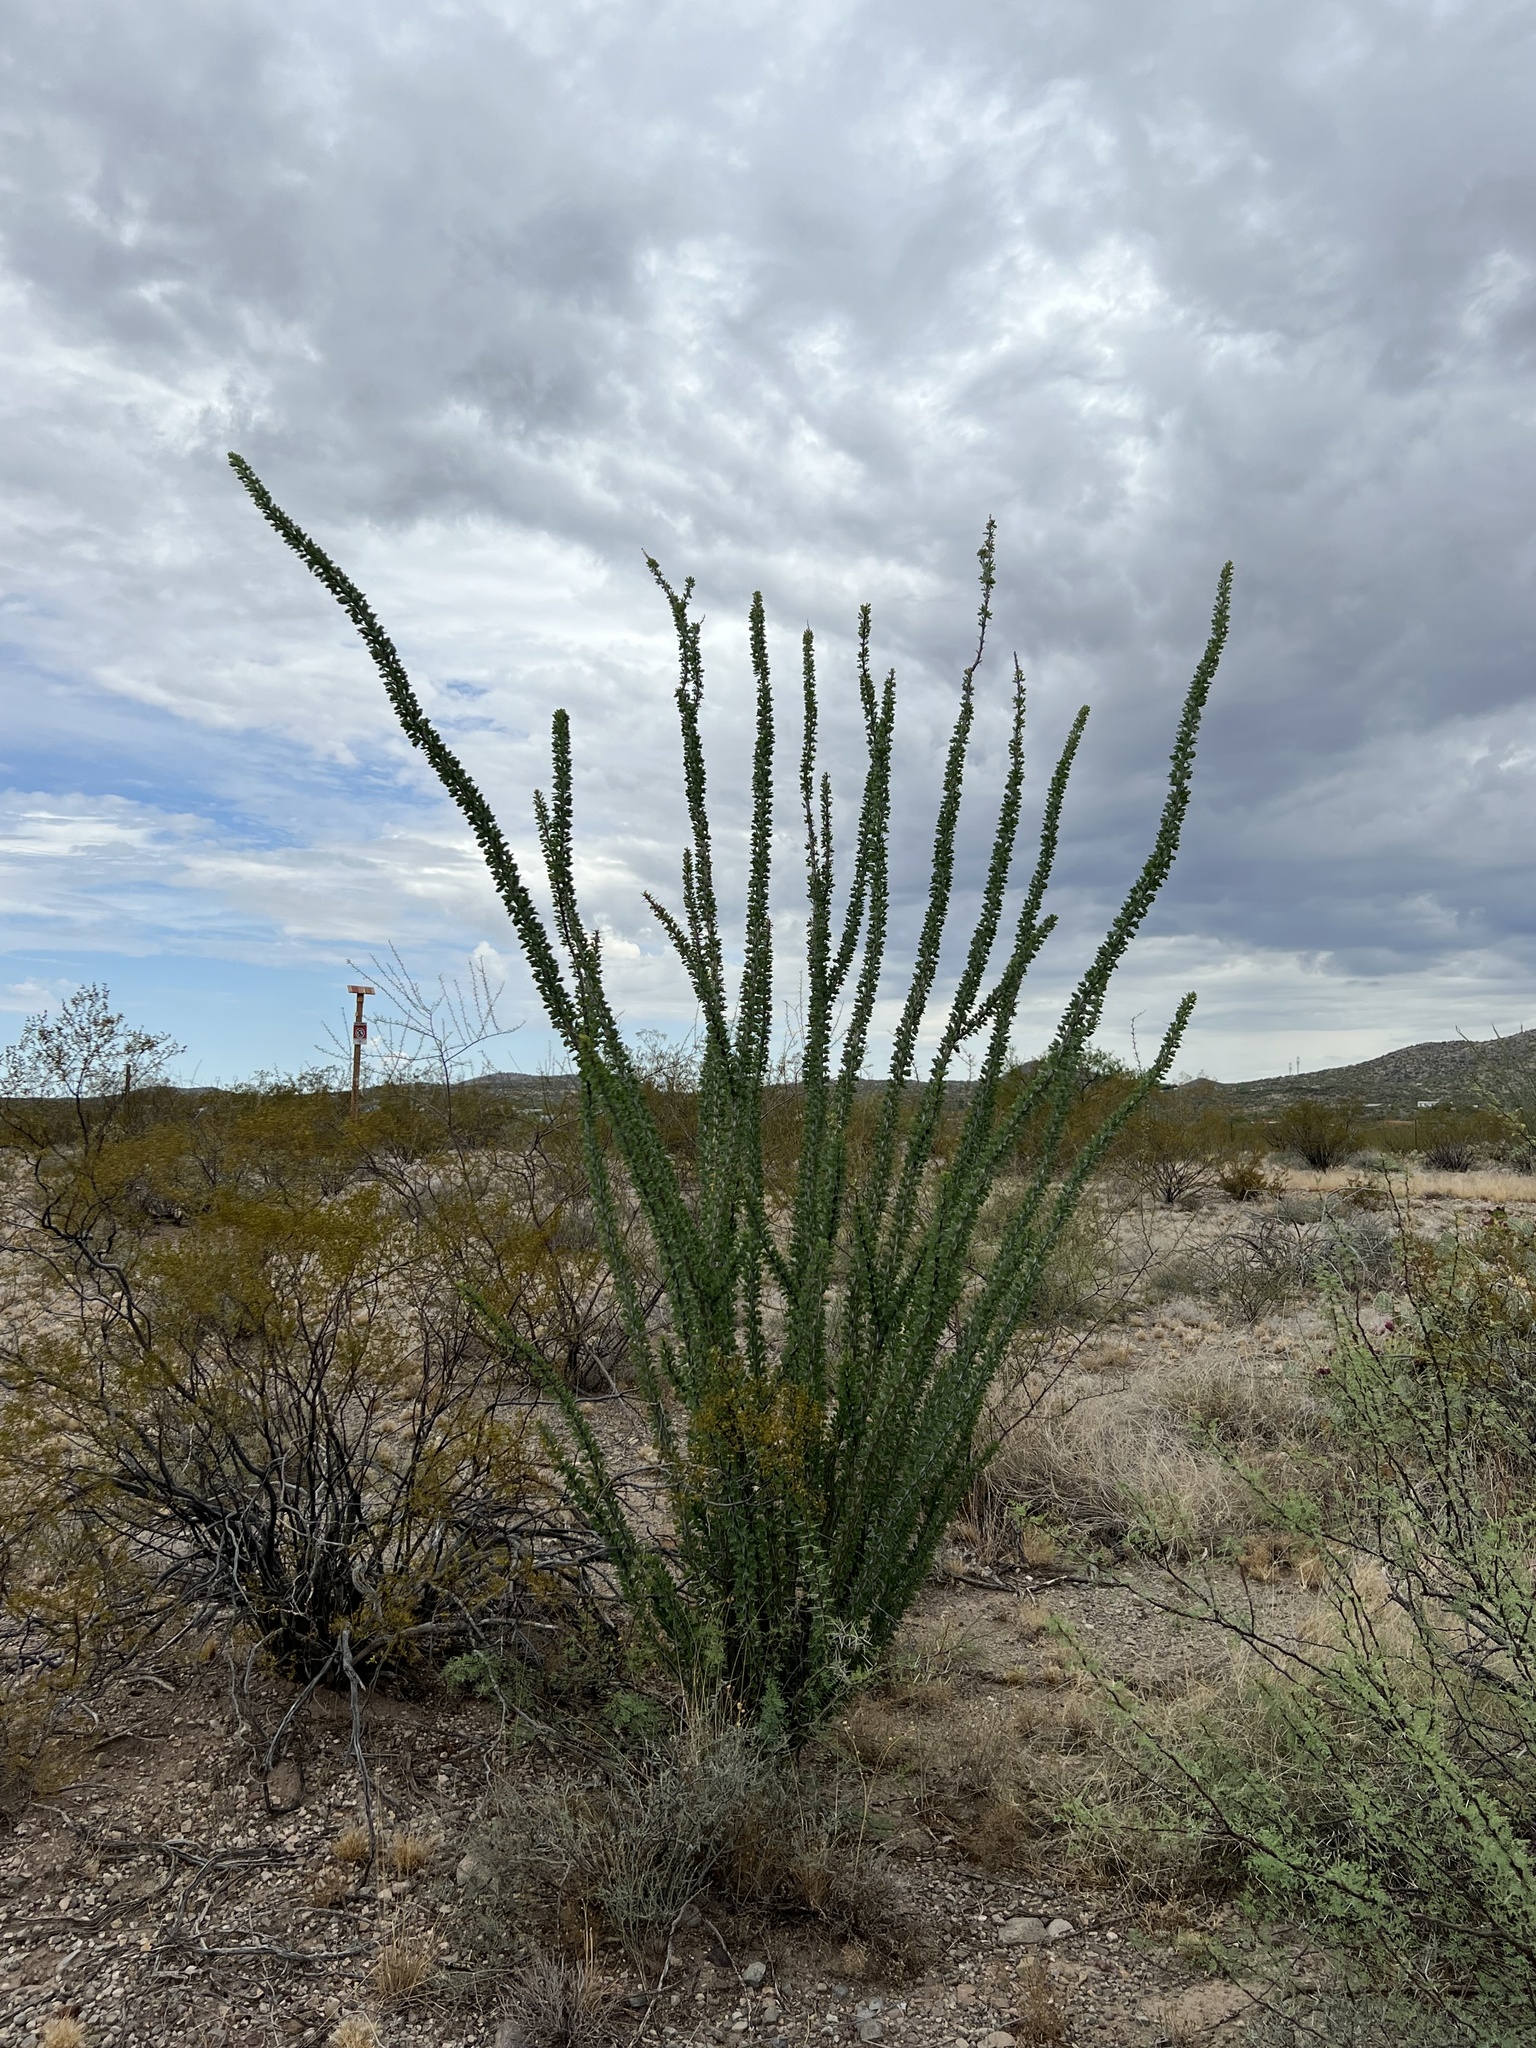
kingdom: Plantae
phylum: Tracheophyta
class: Magnoliopsida
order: Ericales
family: Fouquieriaceae
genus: Fouquieria
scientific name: Fouquieria splendens
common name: Vine-cactus
